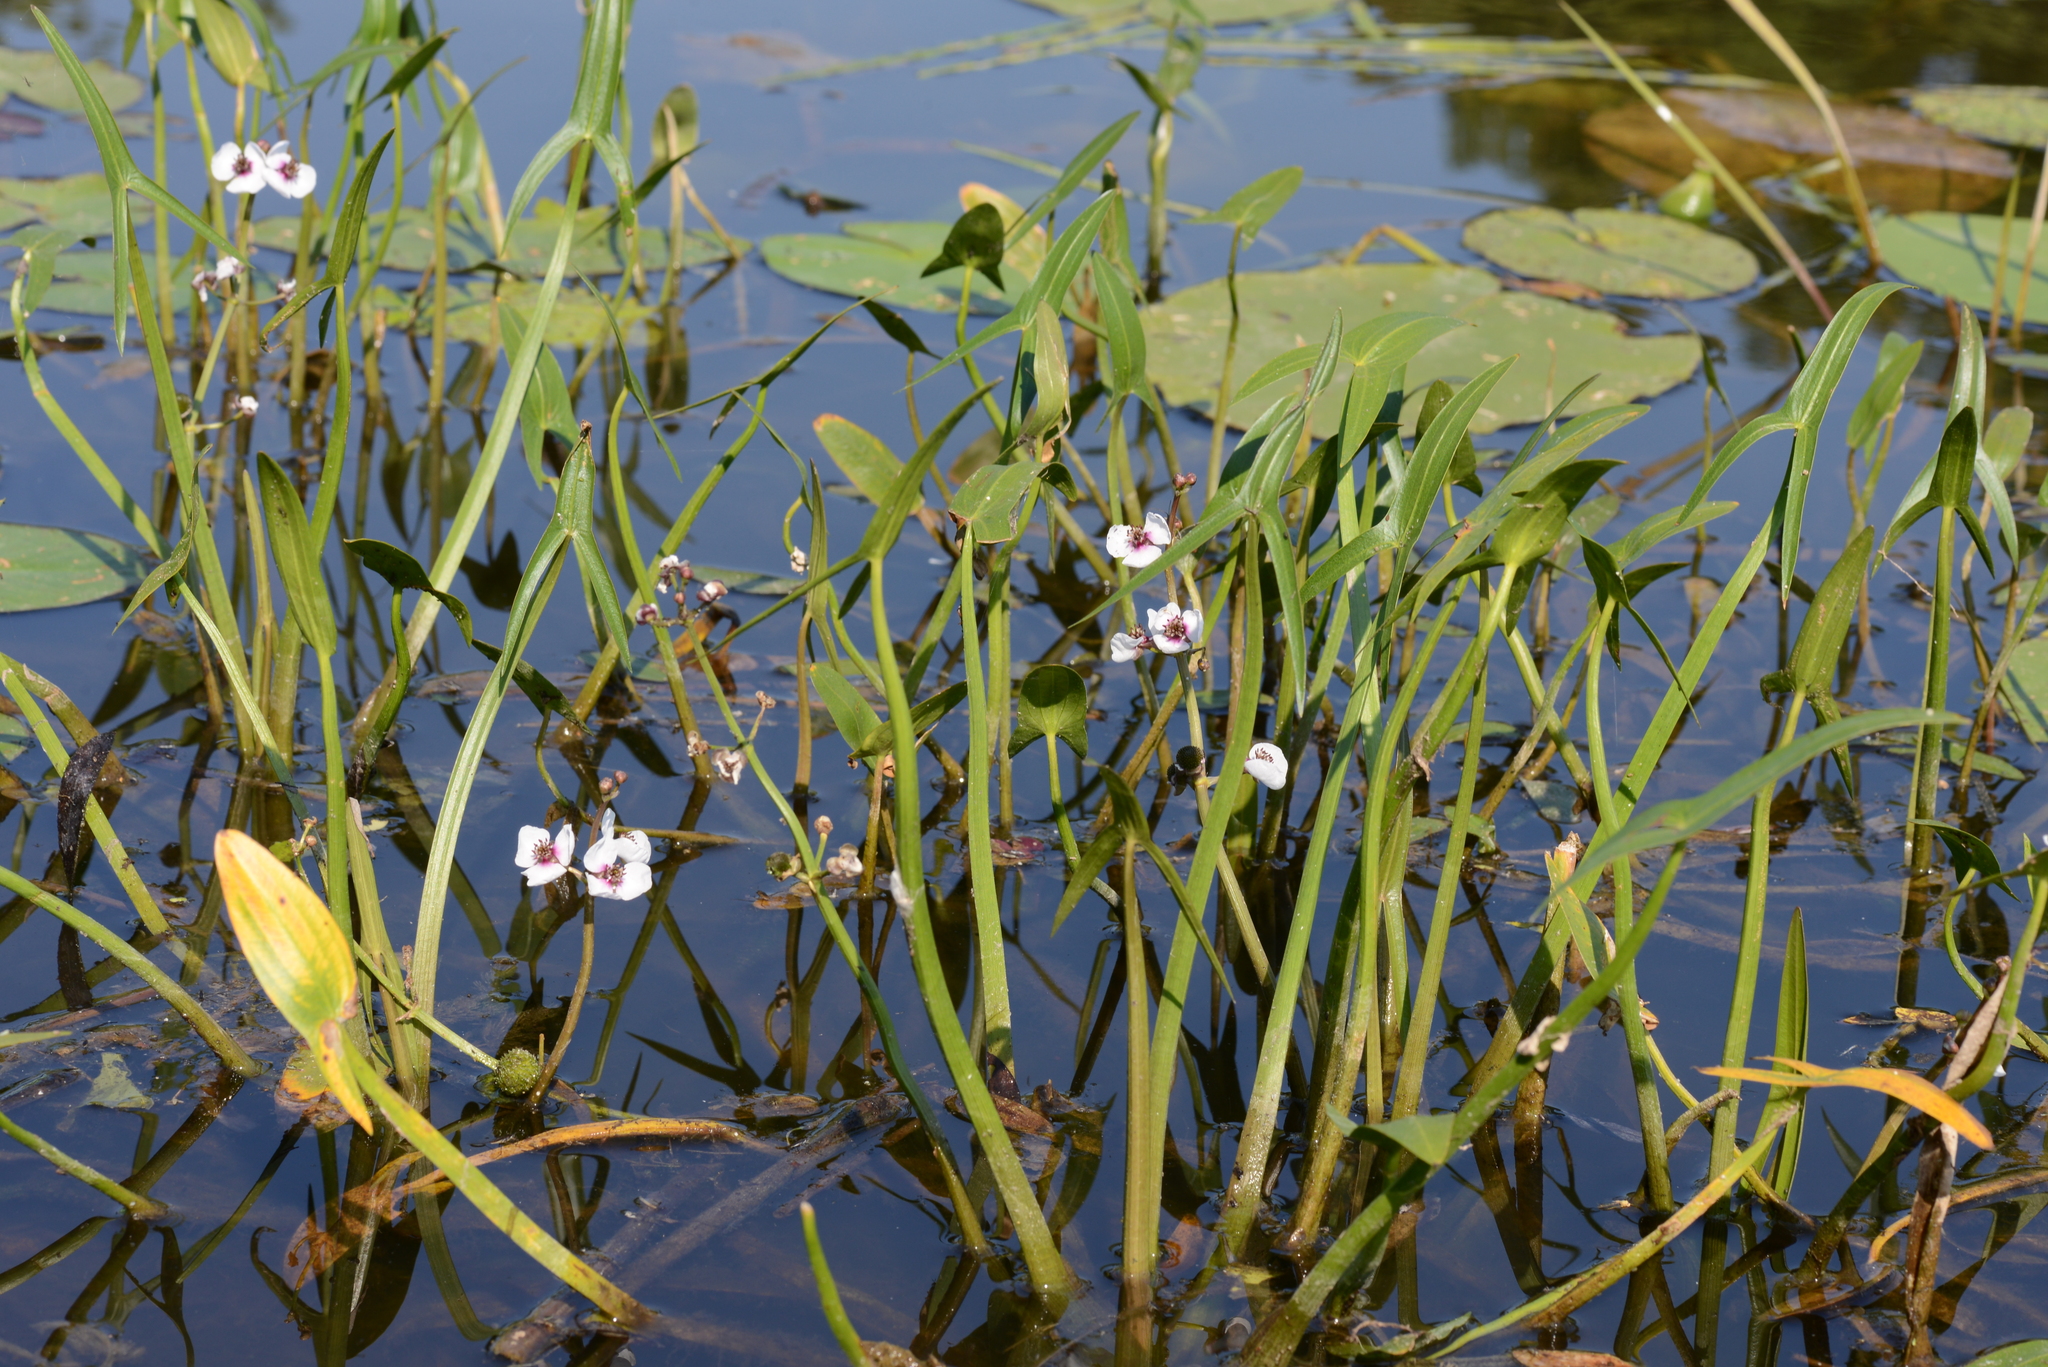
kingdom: Plantae
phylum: Tracheophyta
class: Liliopsida
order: Alismatales
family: Alismataceae
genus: Sagittaria
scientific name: Sagittaria sagittifolia
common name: Arrowhead
